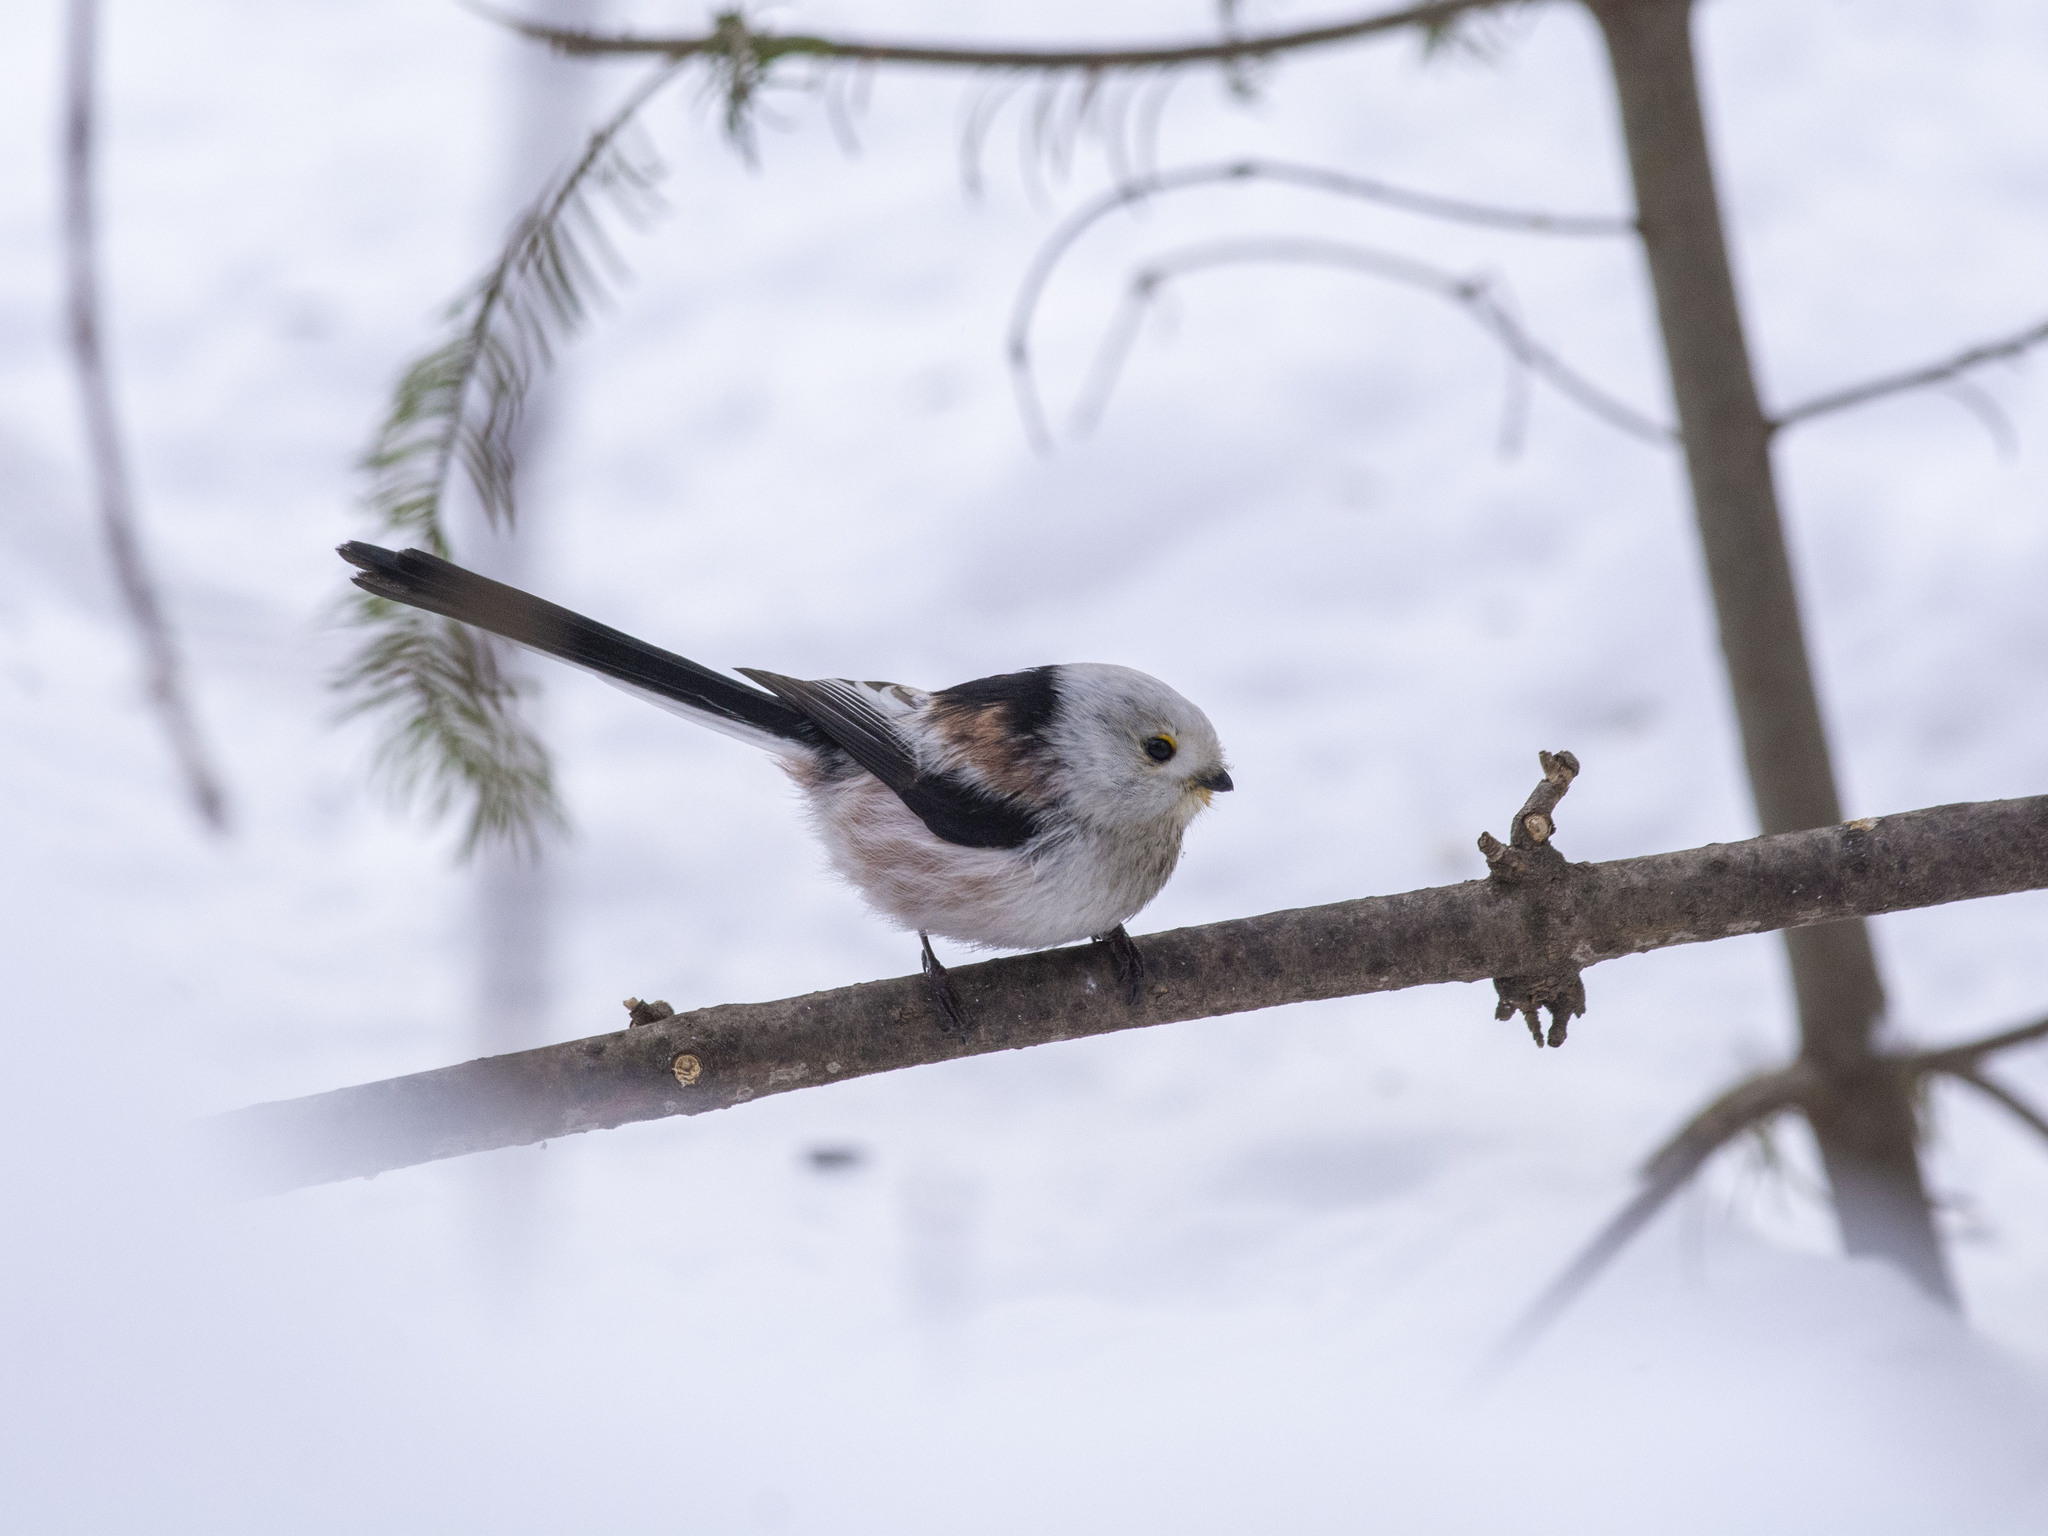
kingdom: Animalia
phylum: Chordata
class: Aves
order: Passeriformes
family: Aegithalidae
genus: Aegithalos
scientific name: Aegithalos caudatus
